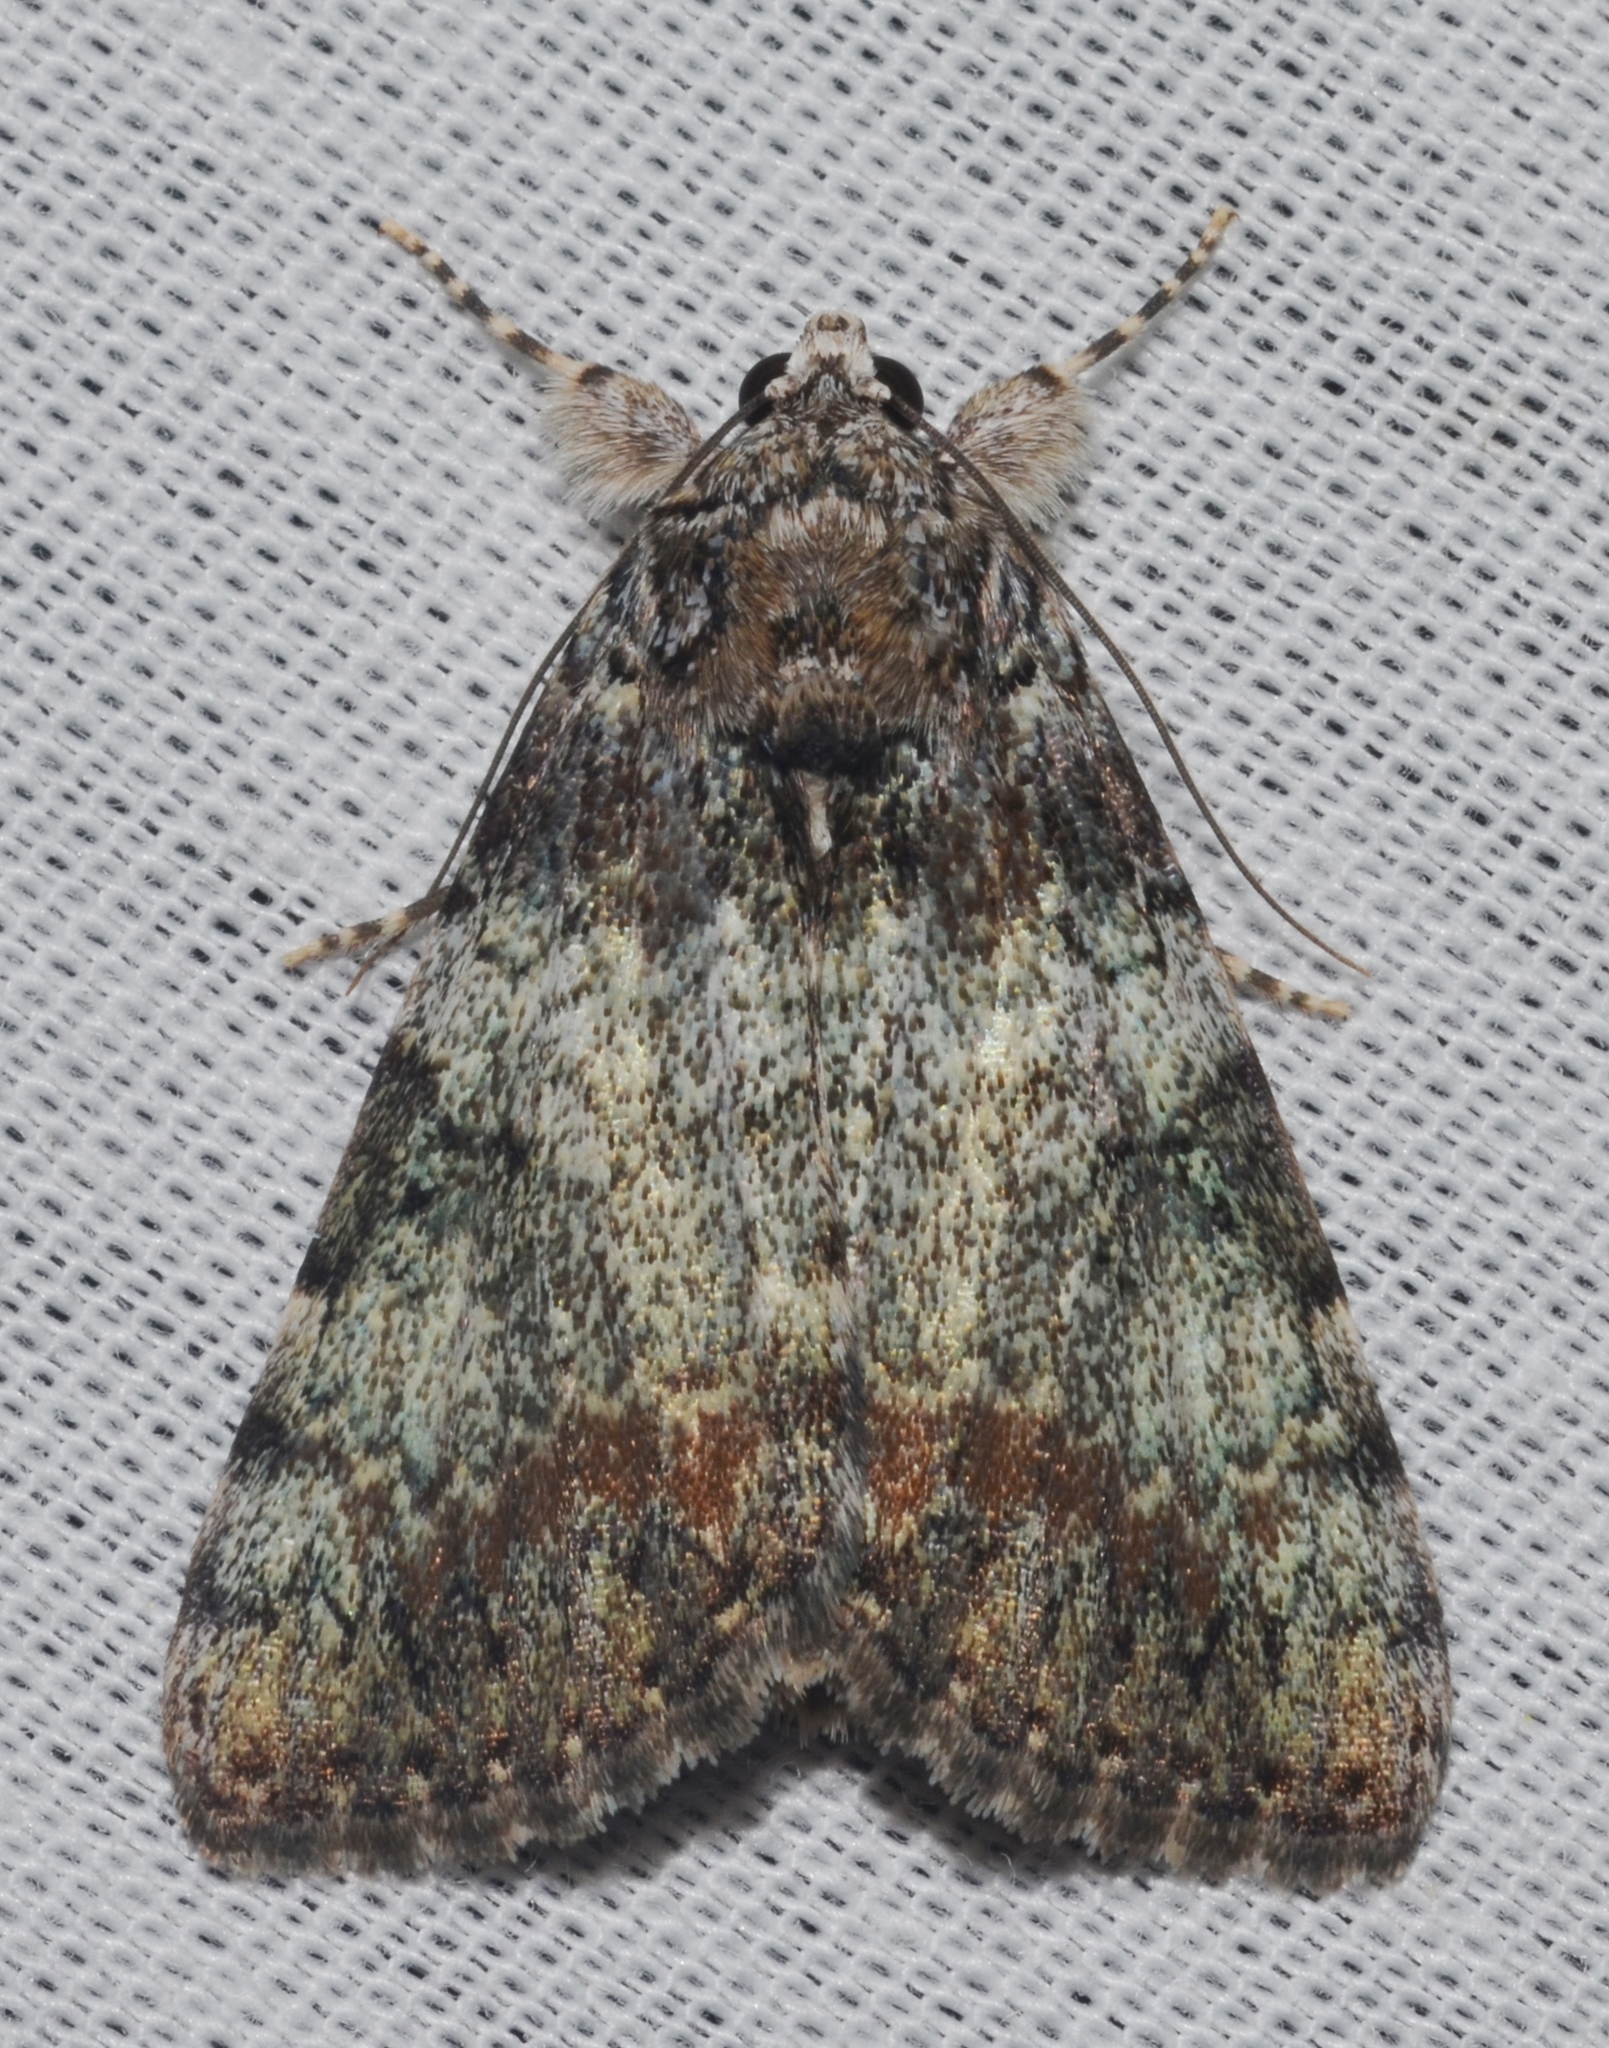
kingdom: Animalia
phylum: Arthropoda
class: Insecta
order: Lepidoptera
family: Erebidae
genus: Catocala
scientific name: Catocala connubialis
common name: Connubial underwing
